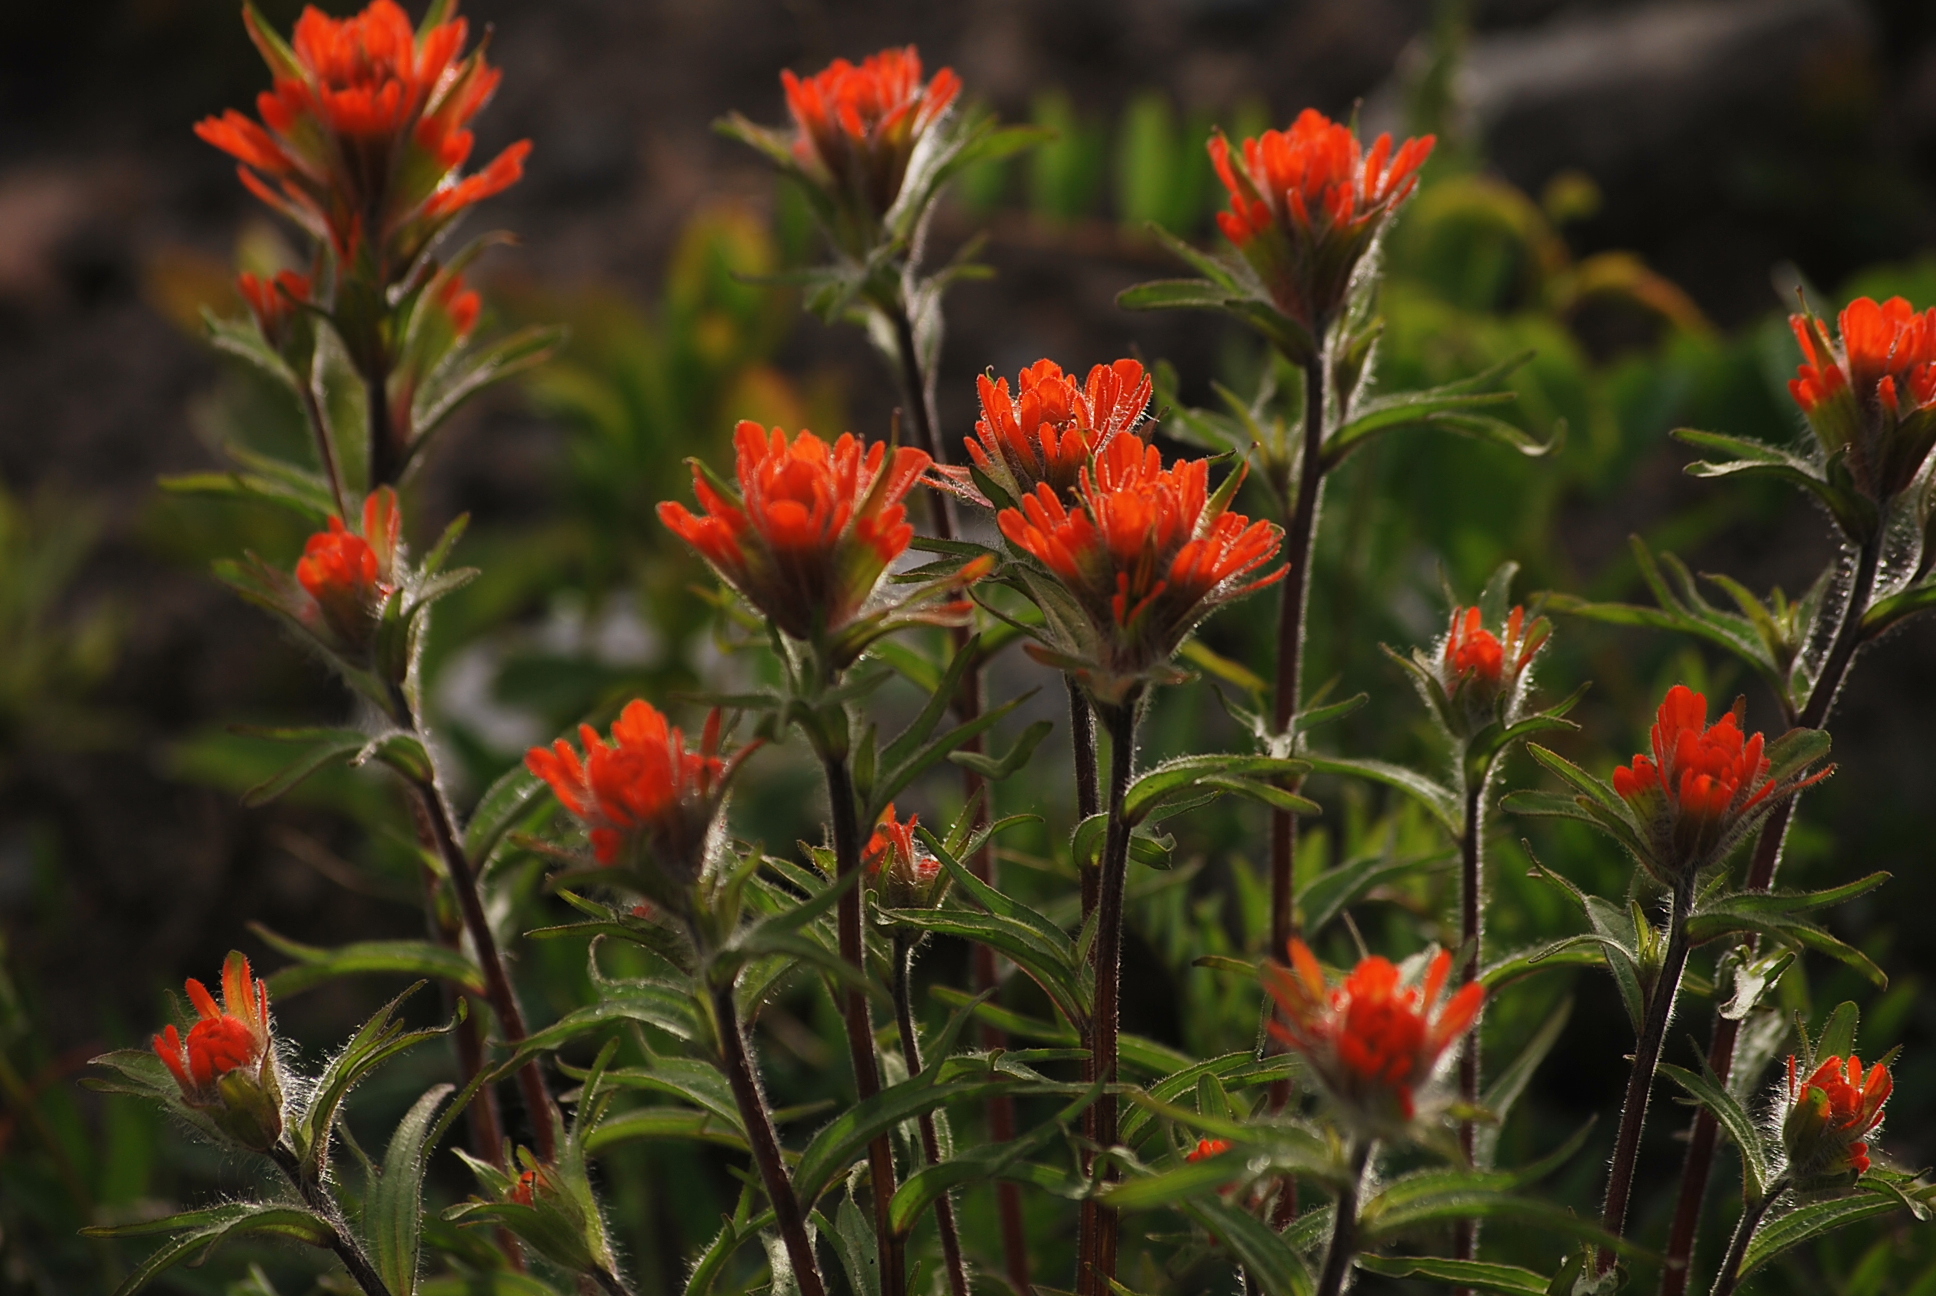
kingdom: Plantae
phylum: Tracheophyta
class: Magnoliopsida
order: Lamiales
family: Orobanchaceae
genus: Castilleja
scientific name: Castilleja hispida
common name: Bristly paintbrush
